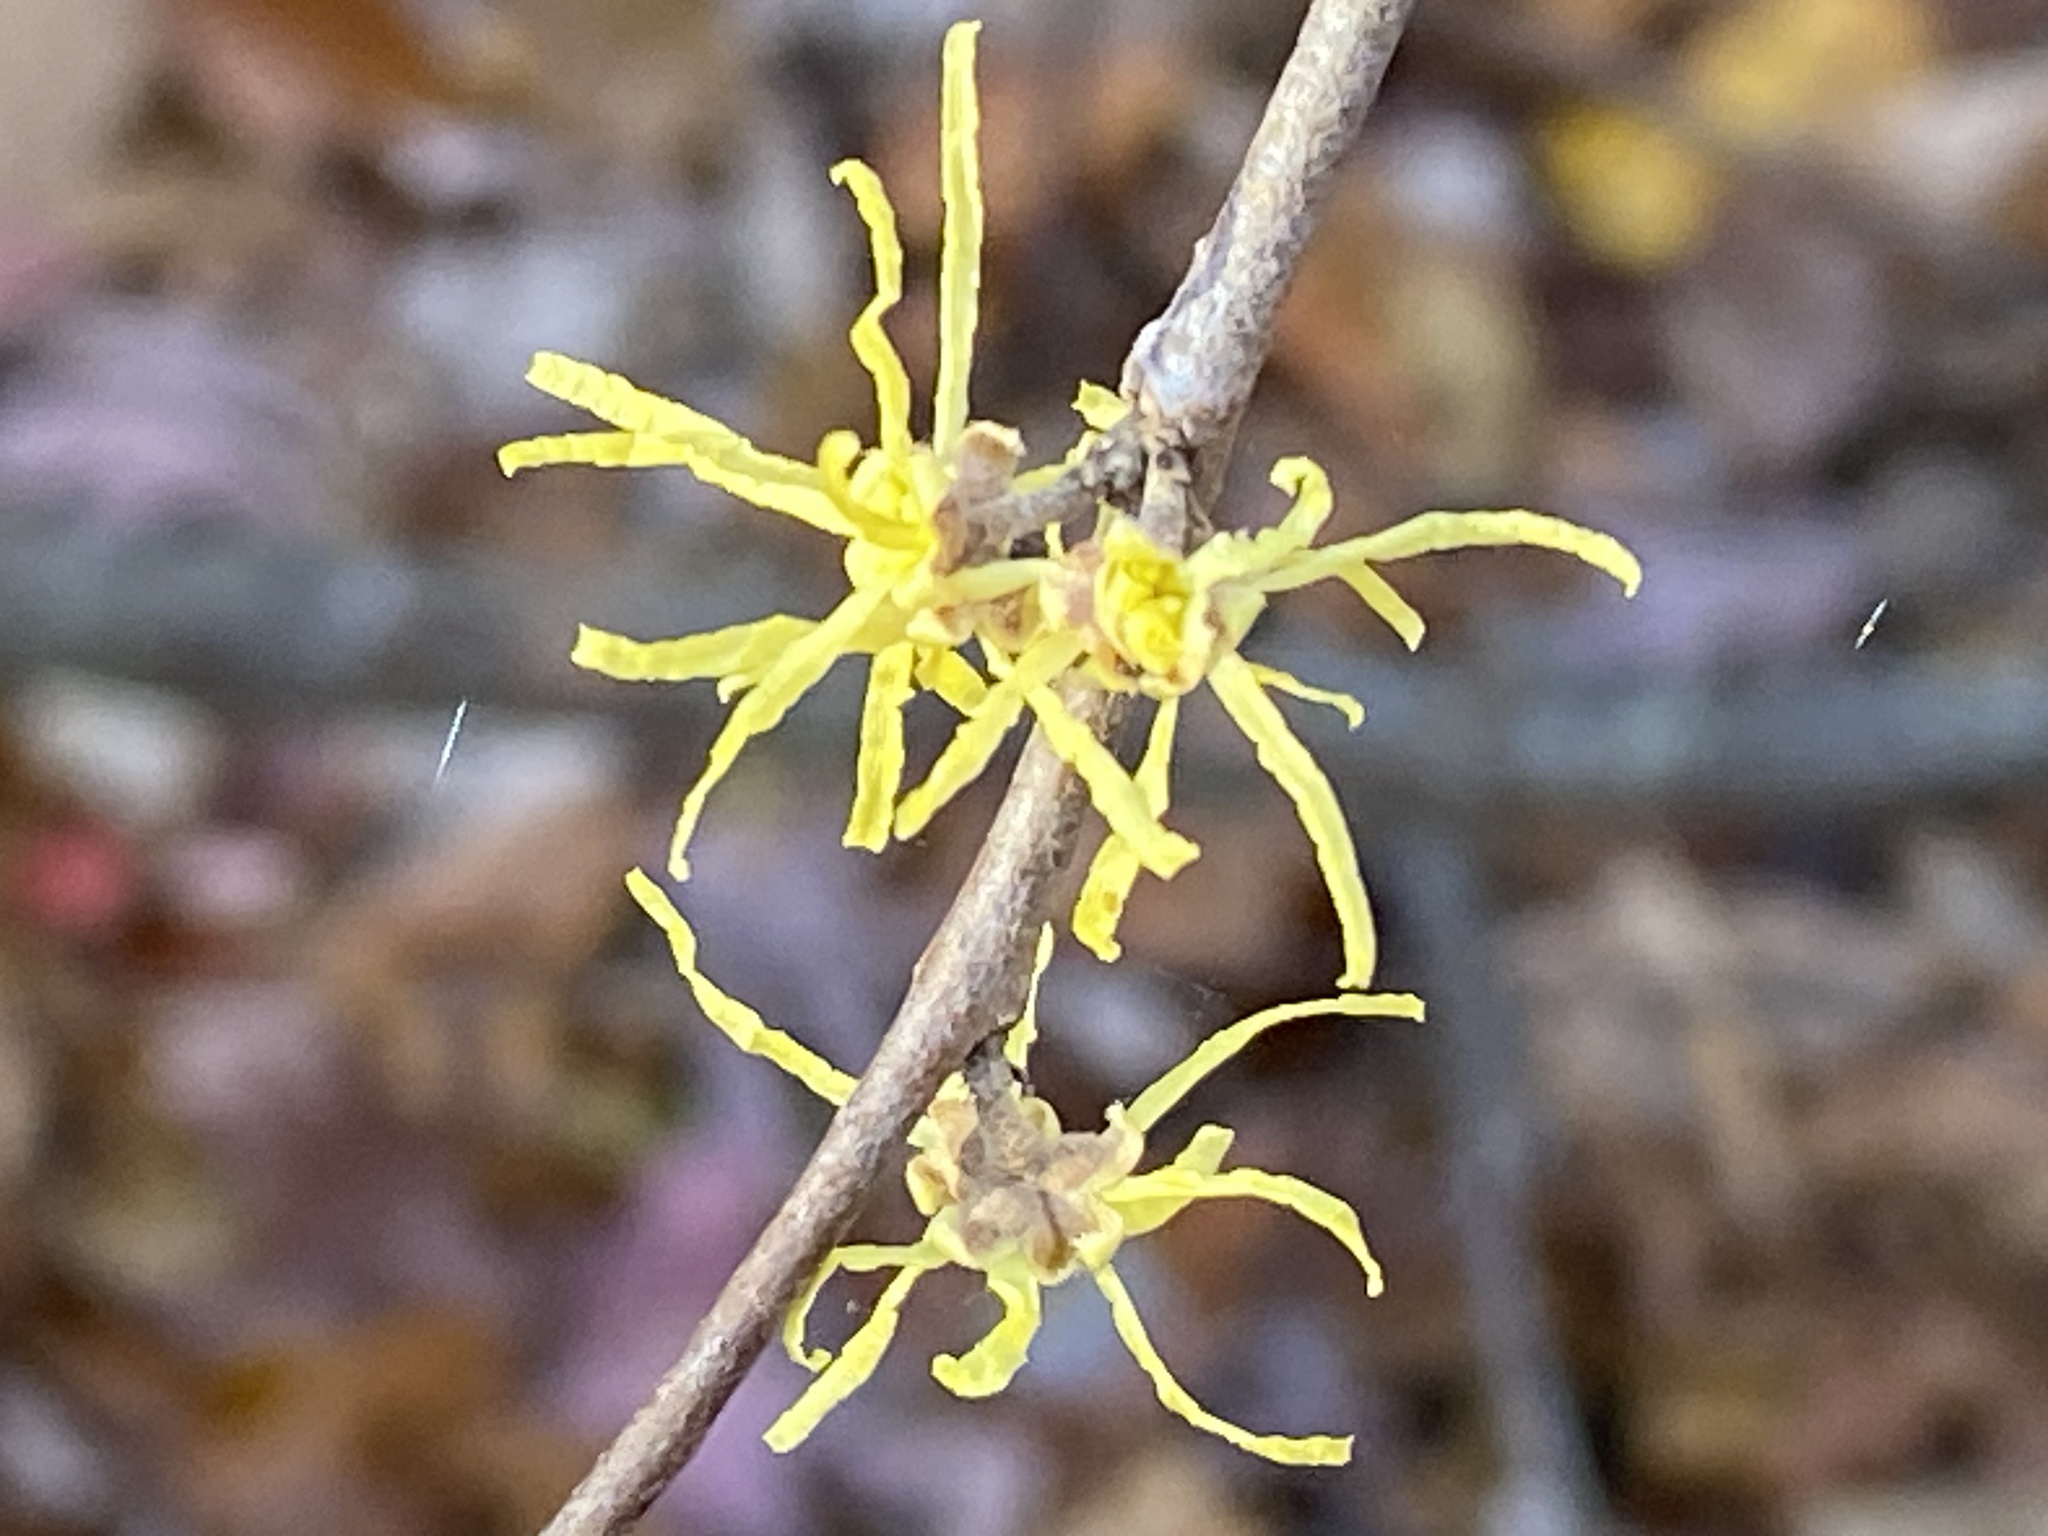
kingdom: Plantae
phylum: Tracheophyta
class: Magnoliopsida
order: Saxifragales
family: Hamamelidaceae
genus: Hamamelis
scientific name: Hamamelis virginiana
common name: Witch-hazel
